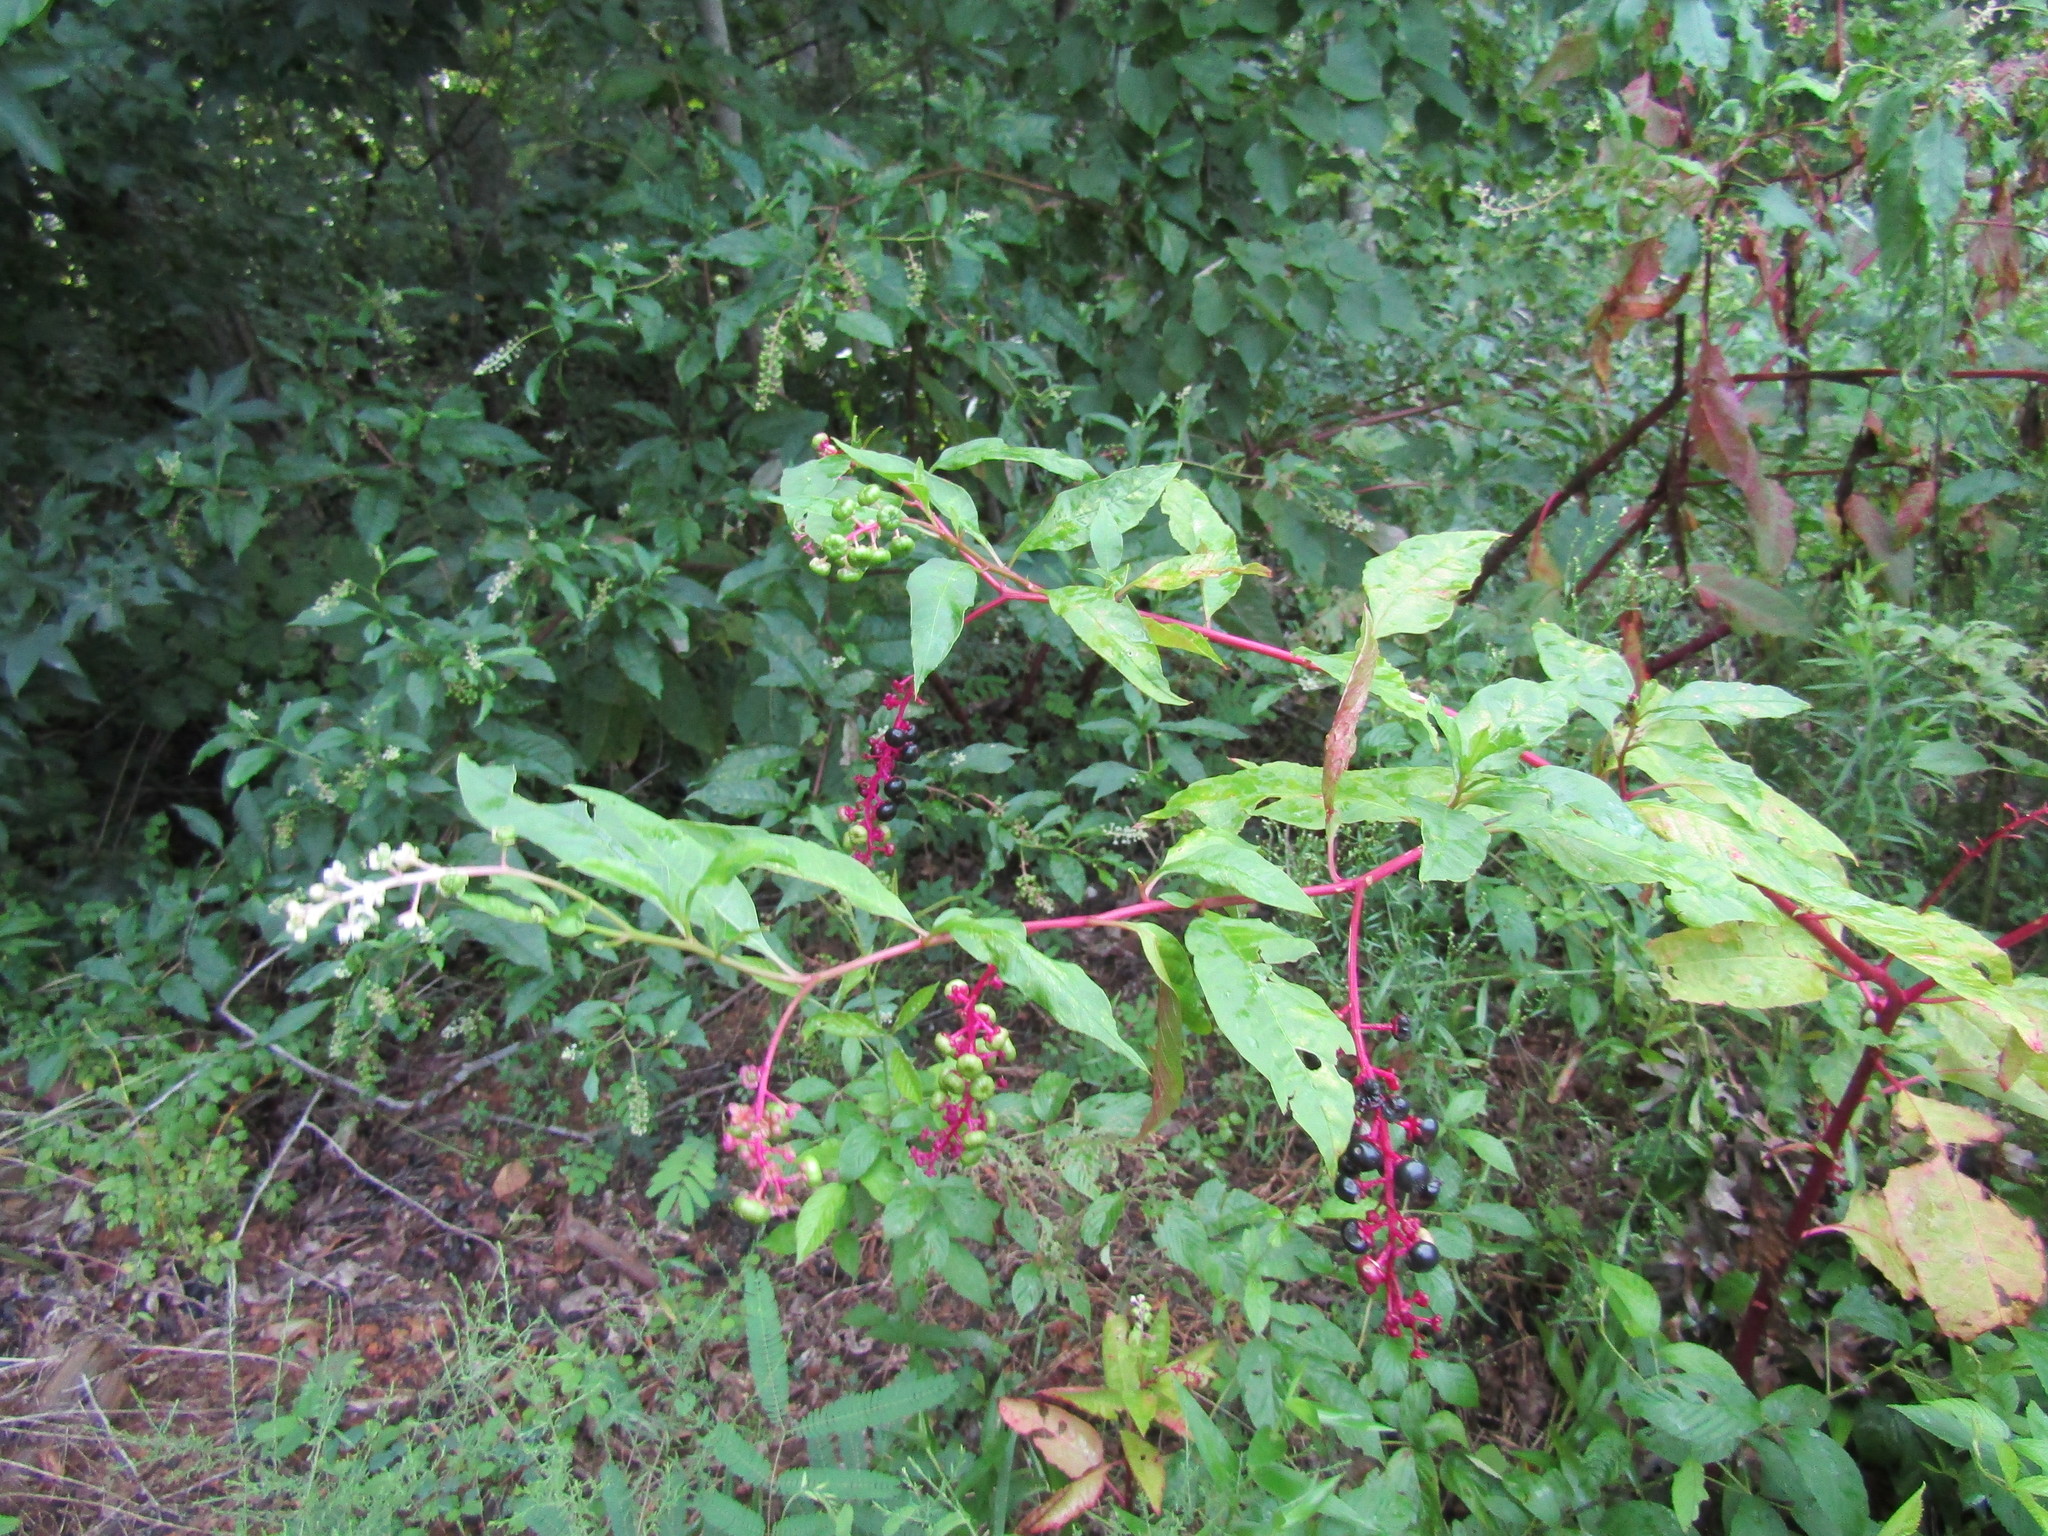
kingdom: Plantae
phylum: Tracheophyta
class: Magnoliopsida
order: Caryophyllales
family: Phytolaccaceae
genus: Phytolacca
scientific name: Phytolacca americana
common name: American pokeweed
